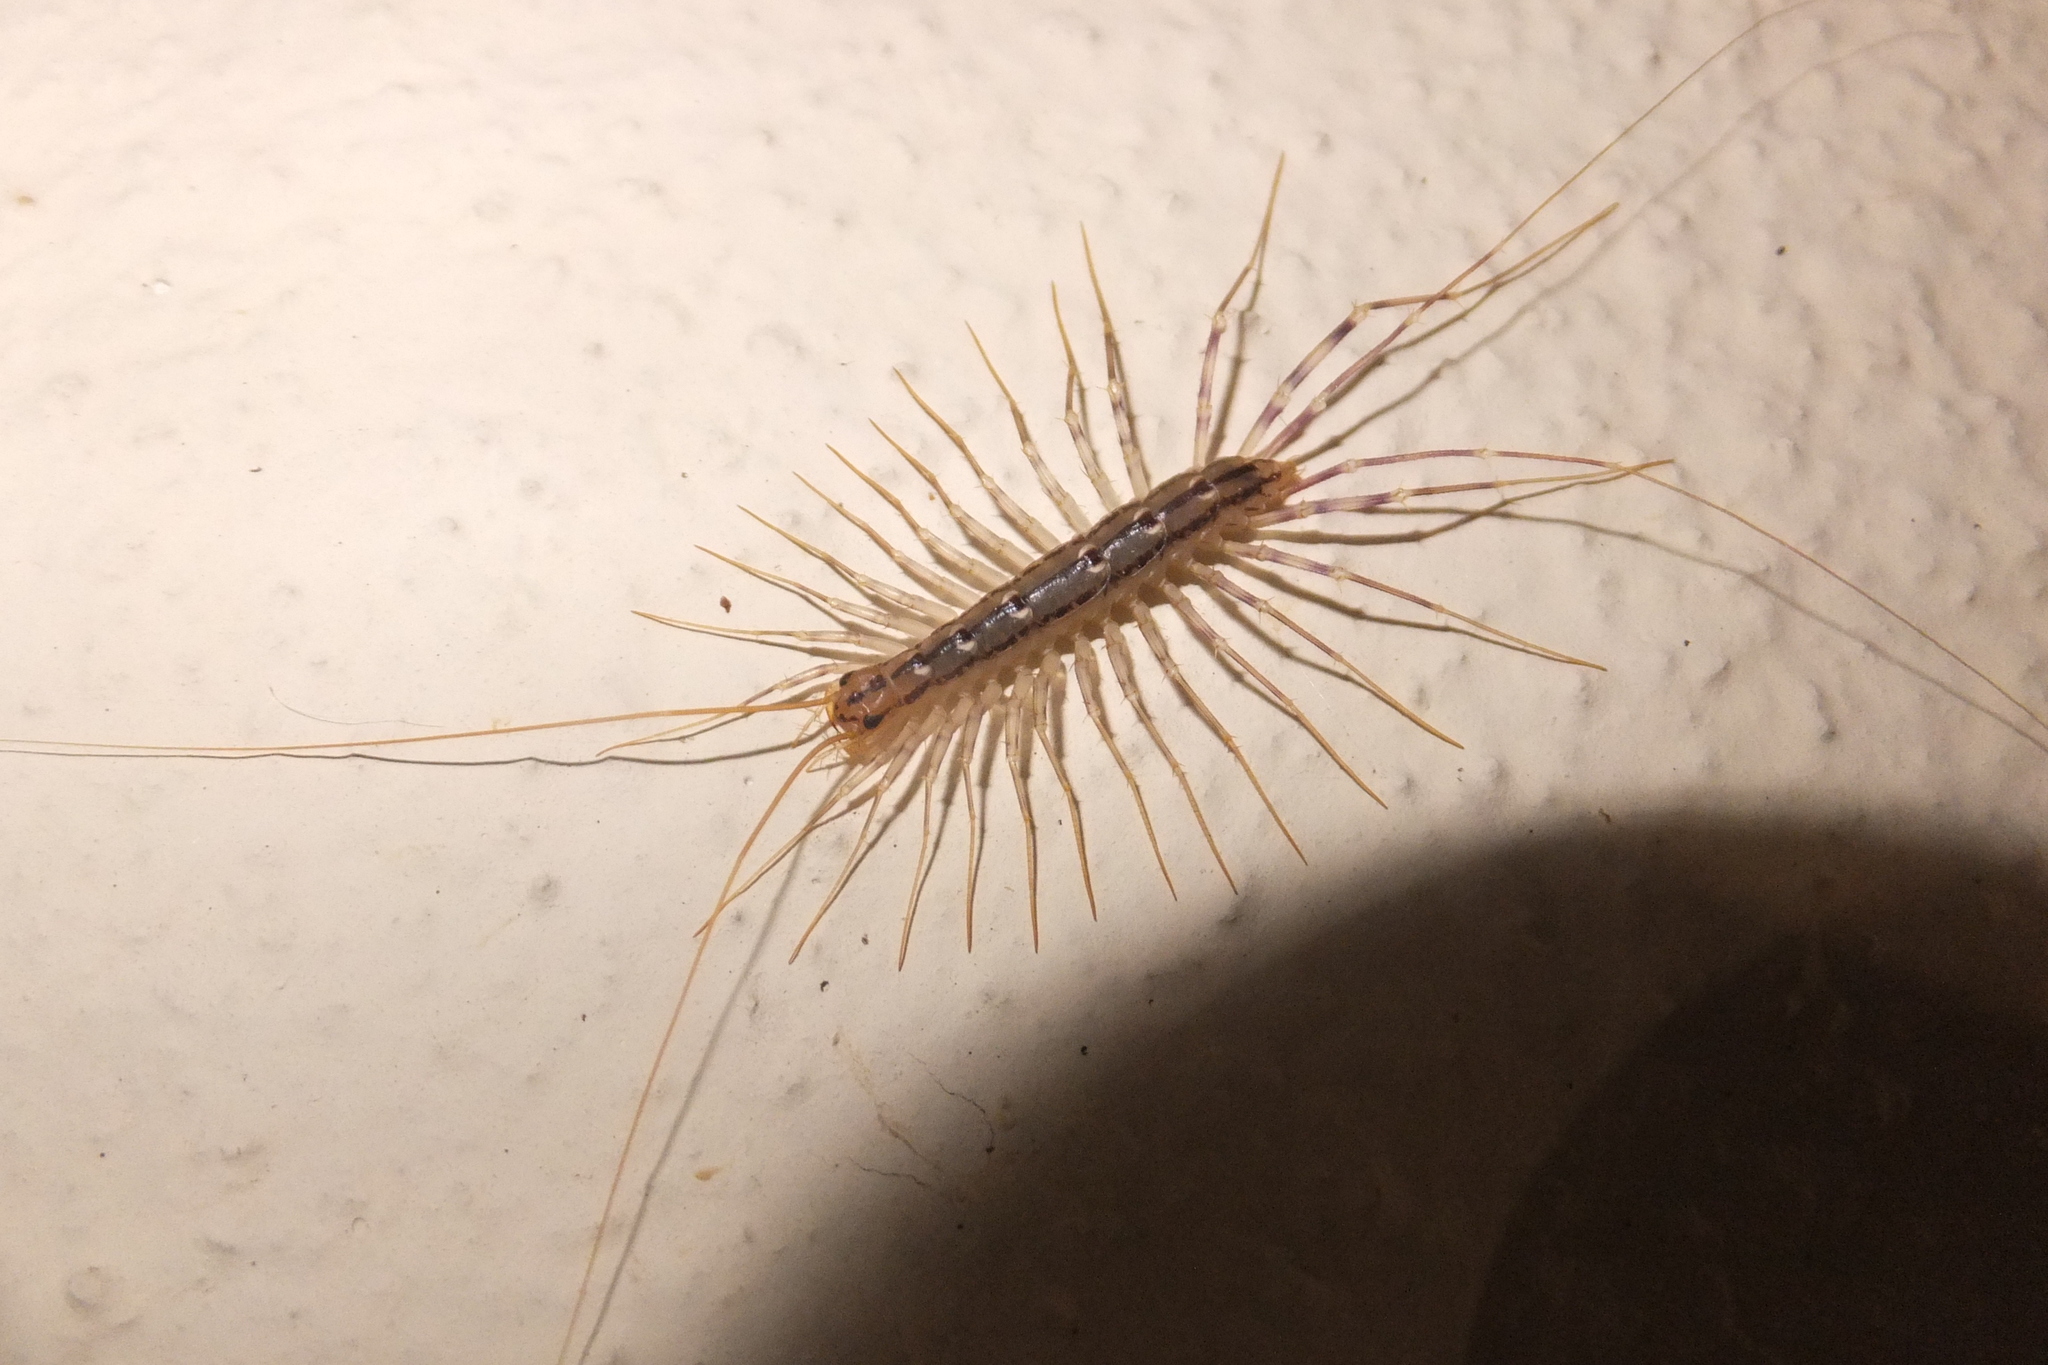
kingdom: Animalia
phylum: Arthropoda
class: Chilopoda
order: Scutigeromorpha
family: Scutigeridae
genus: Scutigera
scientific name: Scutigera coleoptrata
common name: House centipede
